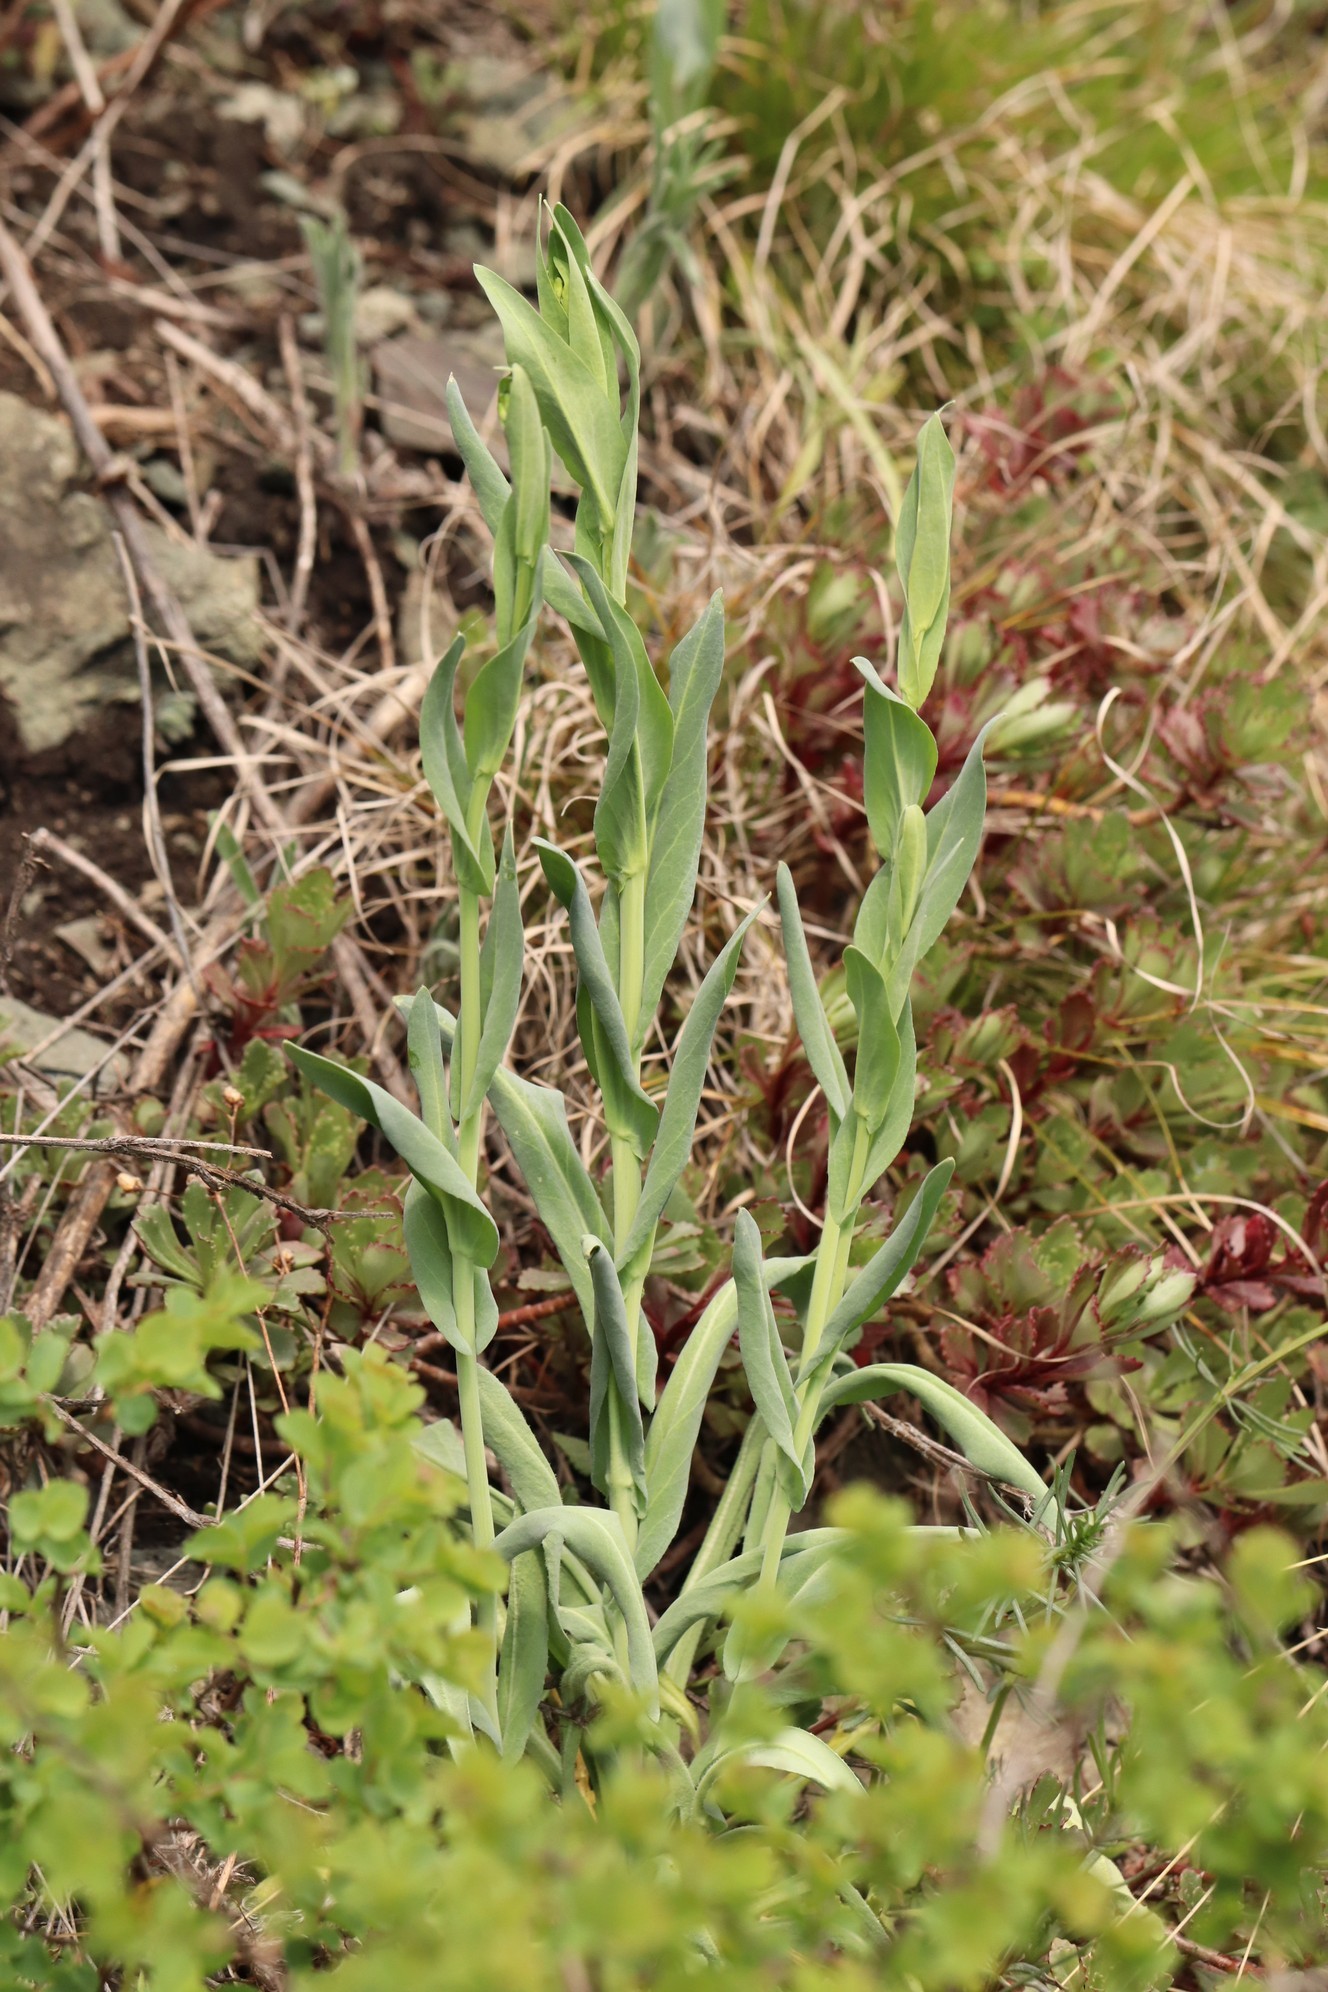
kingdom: Plantae
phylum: Tracheophyta
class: Magnoliopsida
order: Brassicales
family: Brassicaceae
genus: Turritis
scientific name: Turritis glabra
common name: Tower rockcress
